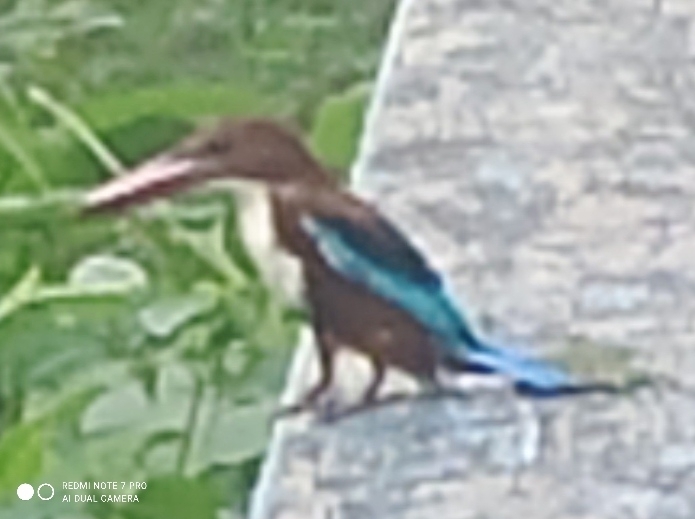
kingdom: Animalia
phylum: Chordata
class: Aves
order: Coraciiformes
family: Alcedinidae
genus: Halcyon
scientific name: Halcyon smyrnensis
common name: White-throated kingfisher
